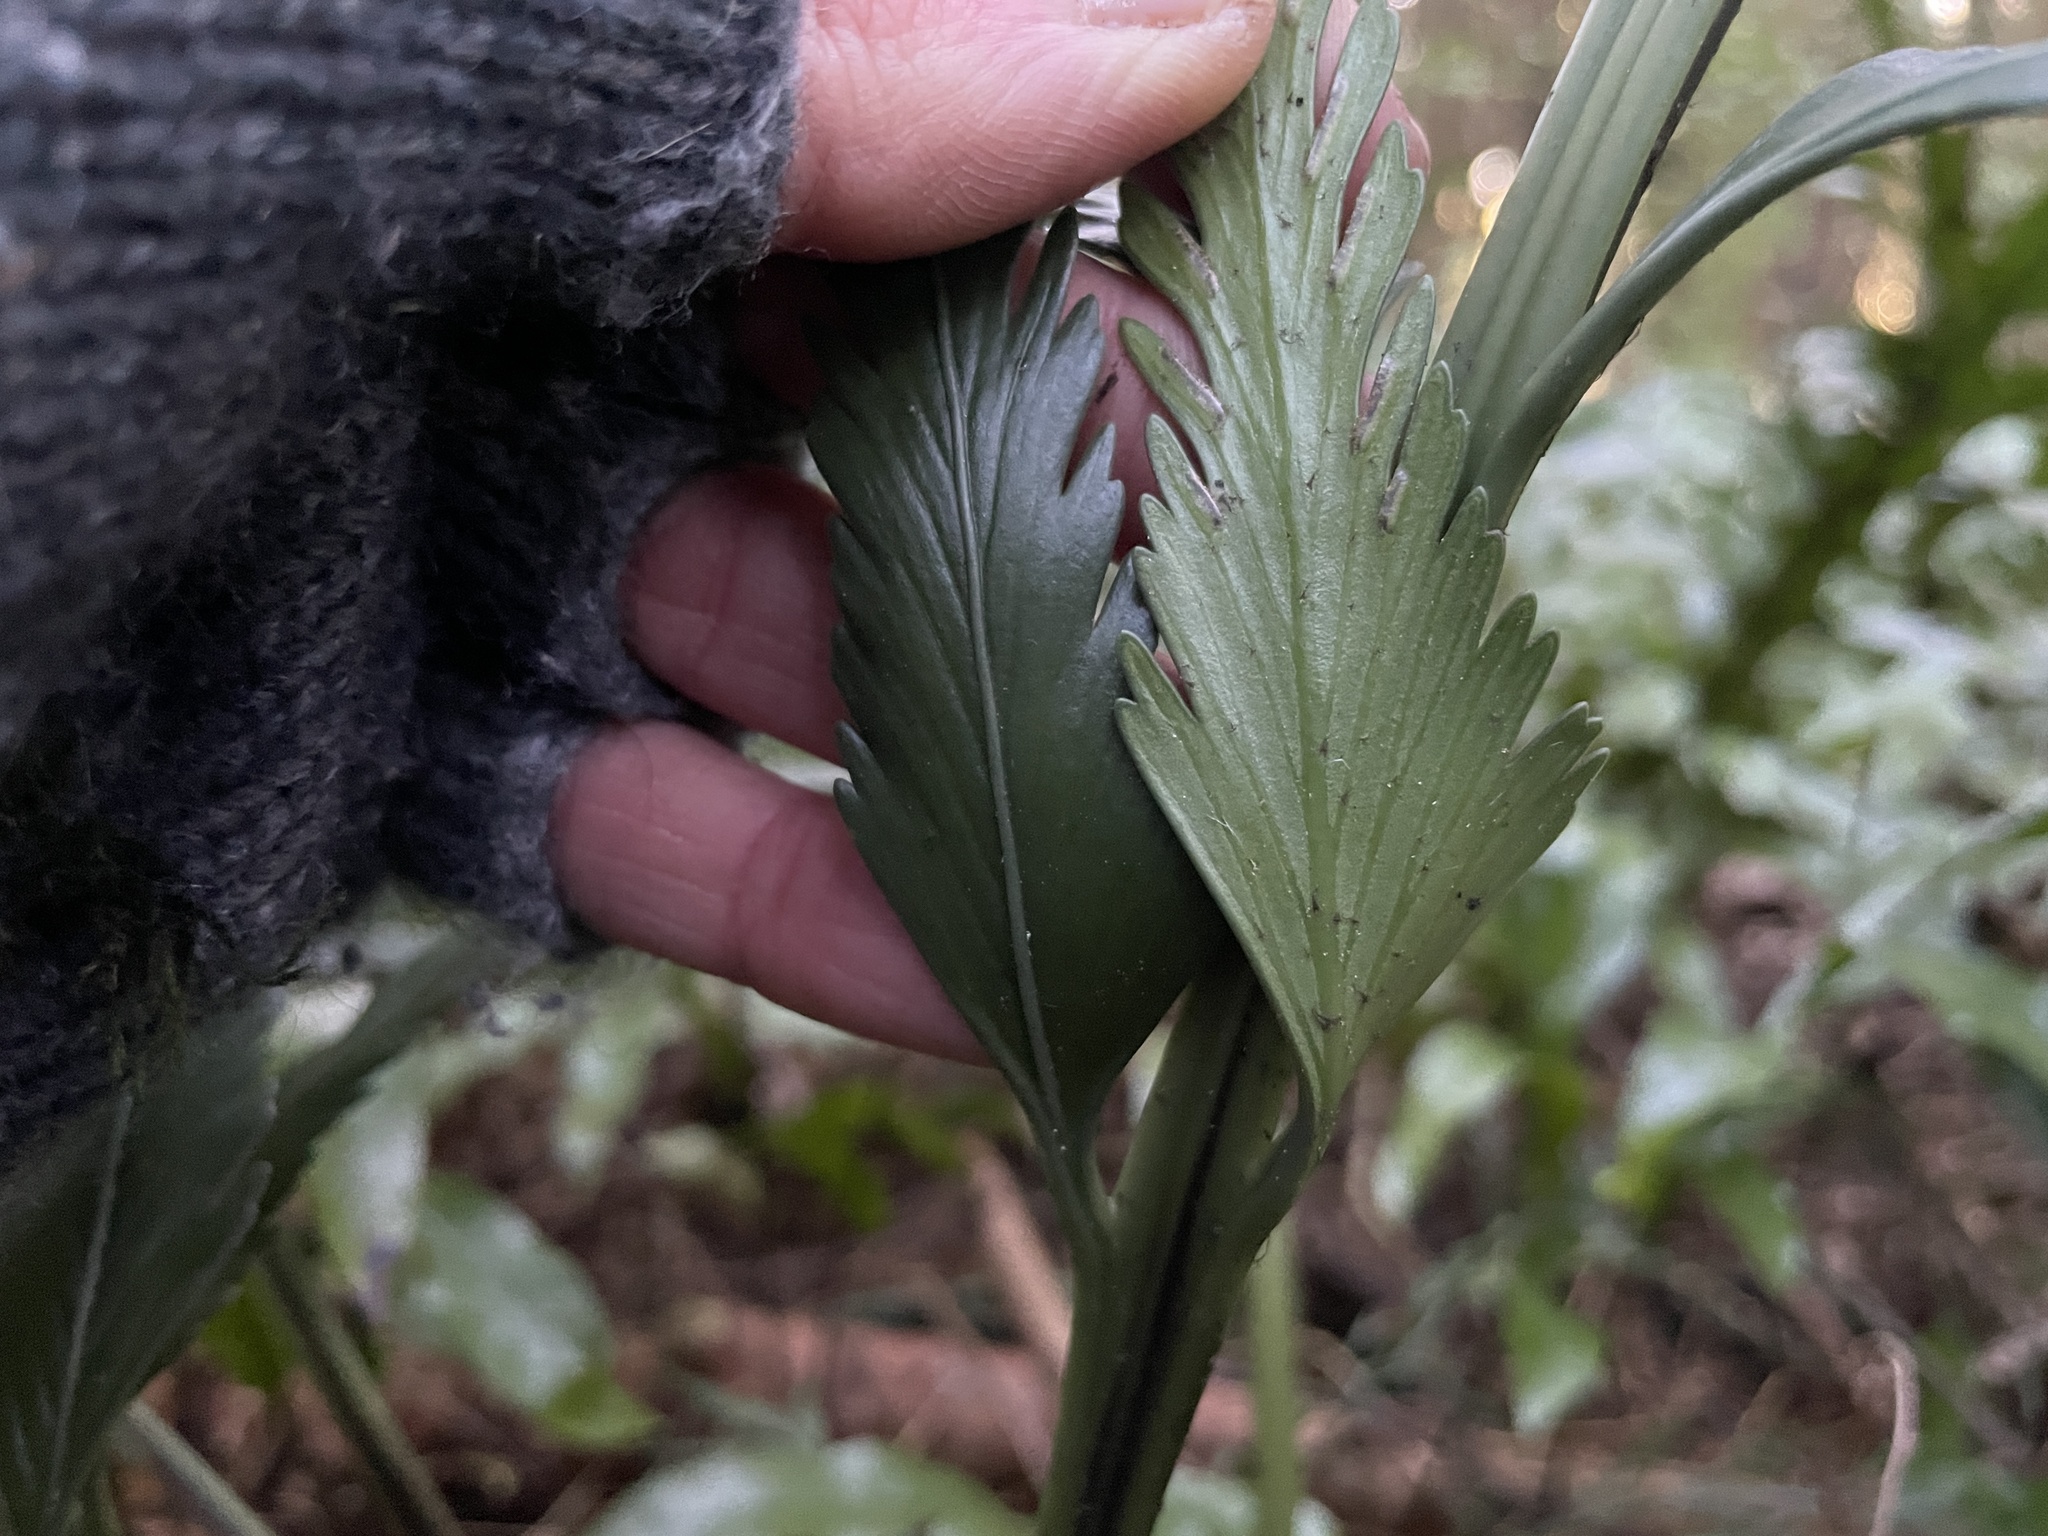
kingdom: Plantae
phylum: Tracheophyta
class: Polypodiopsida
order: Polypodiales
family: Aspleniaceae
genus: Asplenium
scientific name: Asplenium scleroprium
